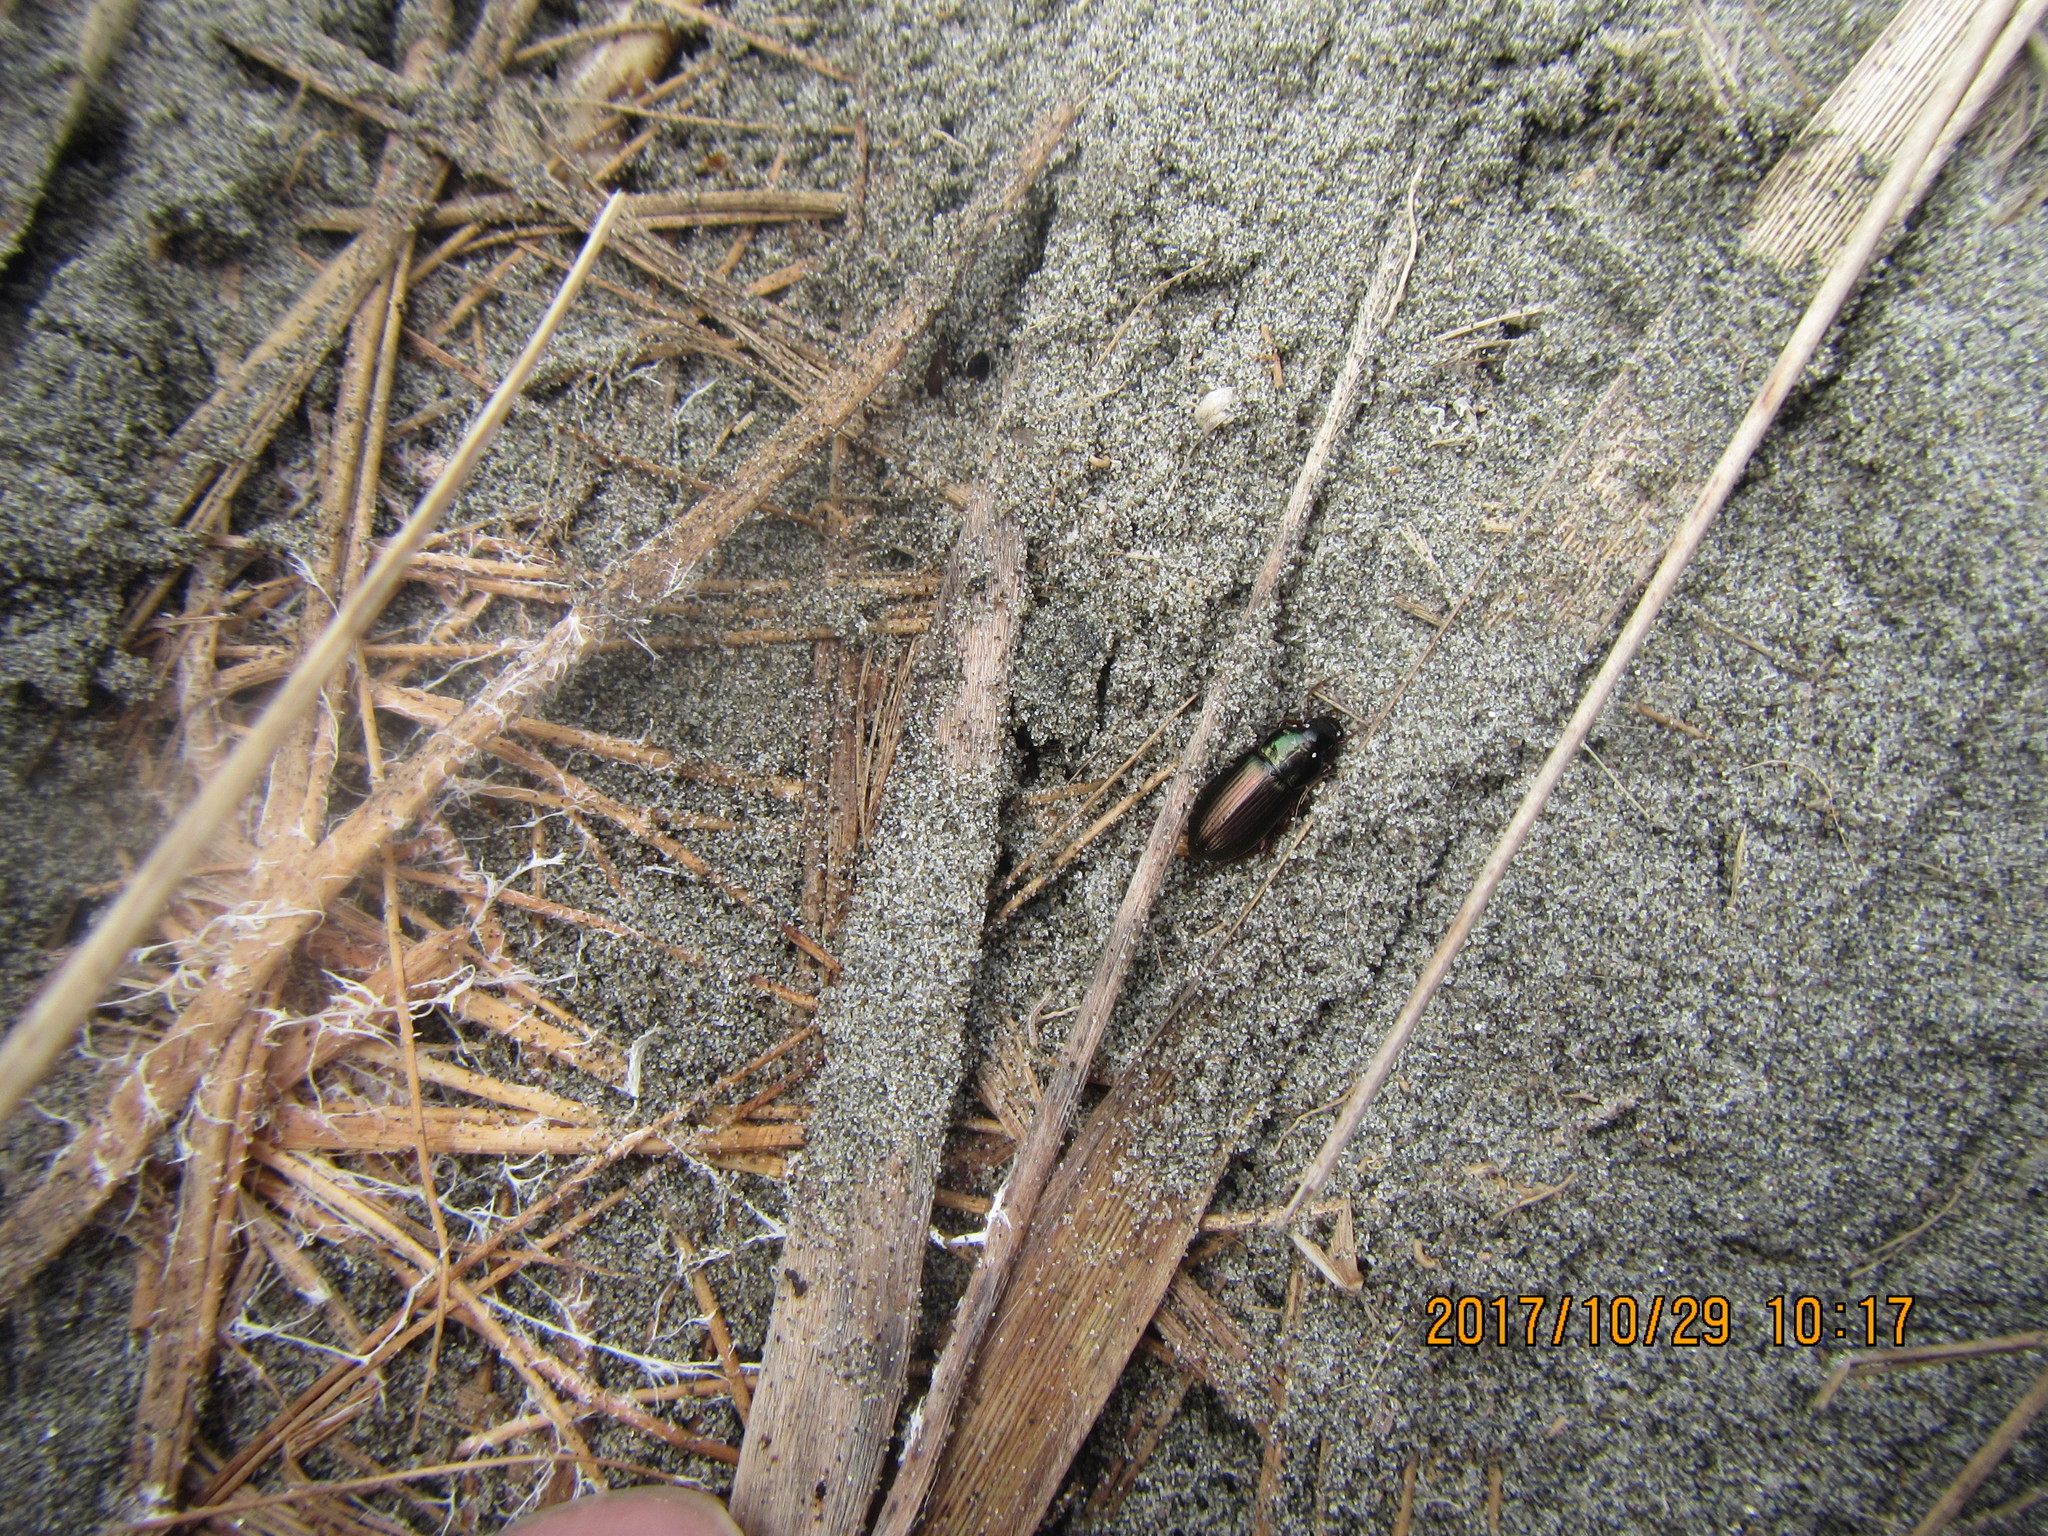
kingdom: Animalia
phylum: Arthropoda
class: Insecta
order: Coleoptera
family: Carabidae
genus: Harpalus
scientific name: Harpalus affinis
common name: Polychrome harp ground beetle
